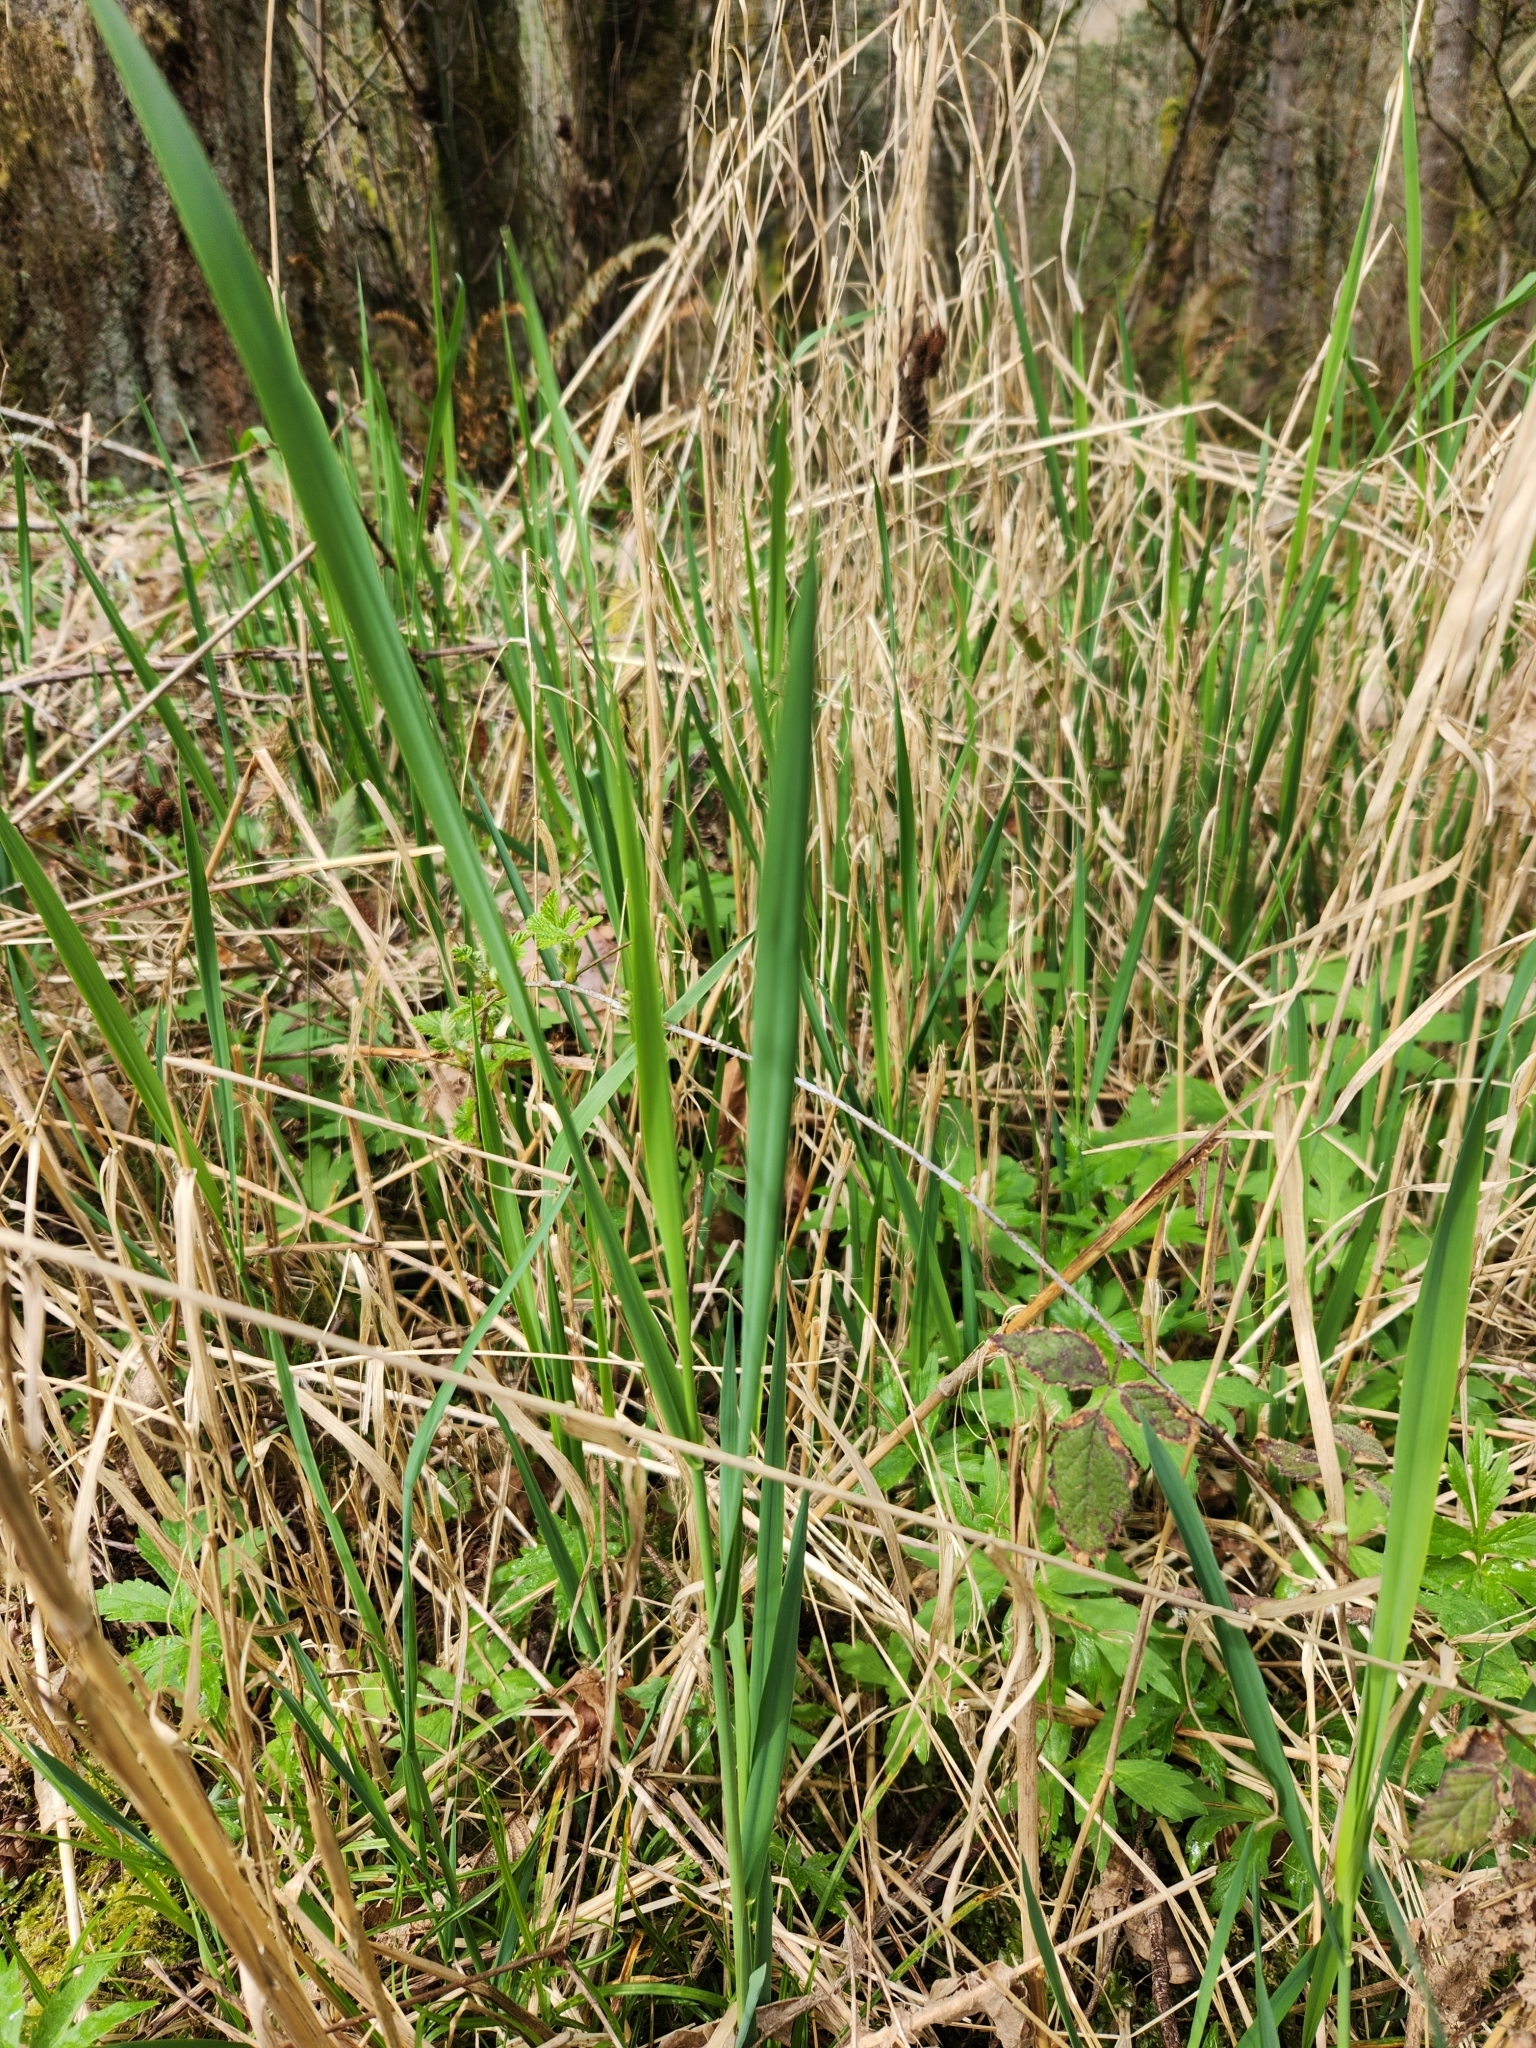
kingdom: Plantae
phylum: Tracheophyta
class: Liliopsida
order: Poales
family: Poaceae
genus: Phalaris
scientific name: Phalaris arundinacea
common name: Reed canary-grass
